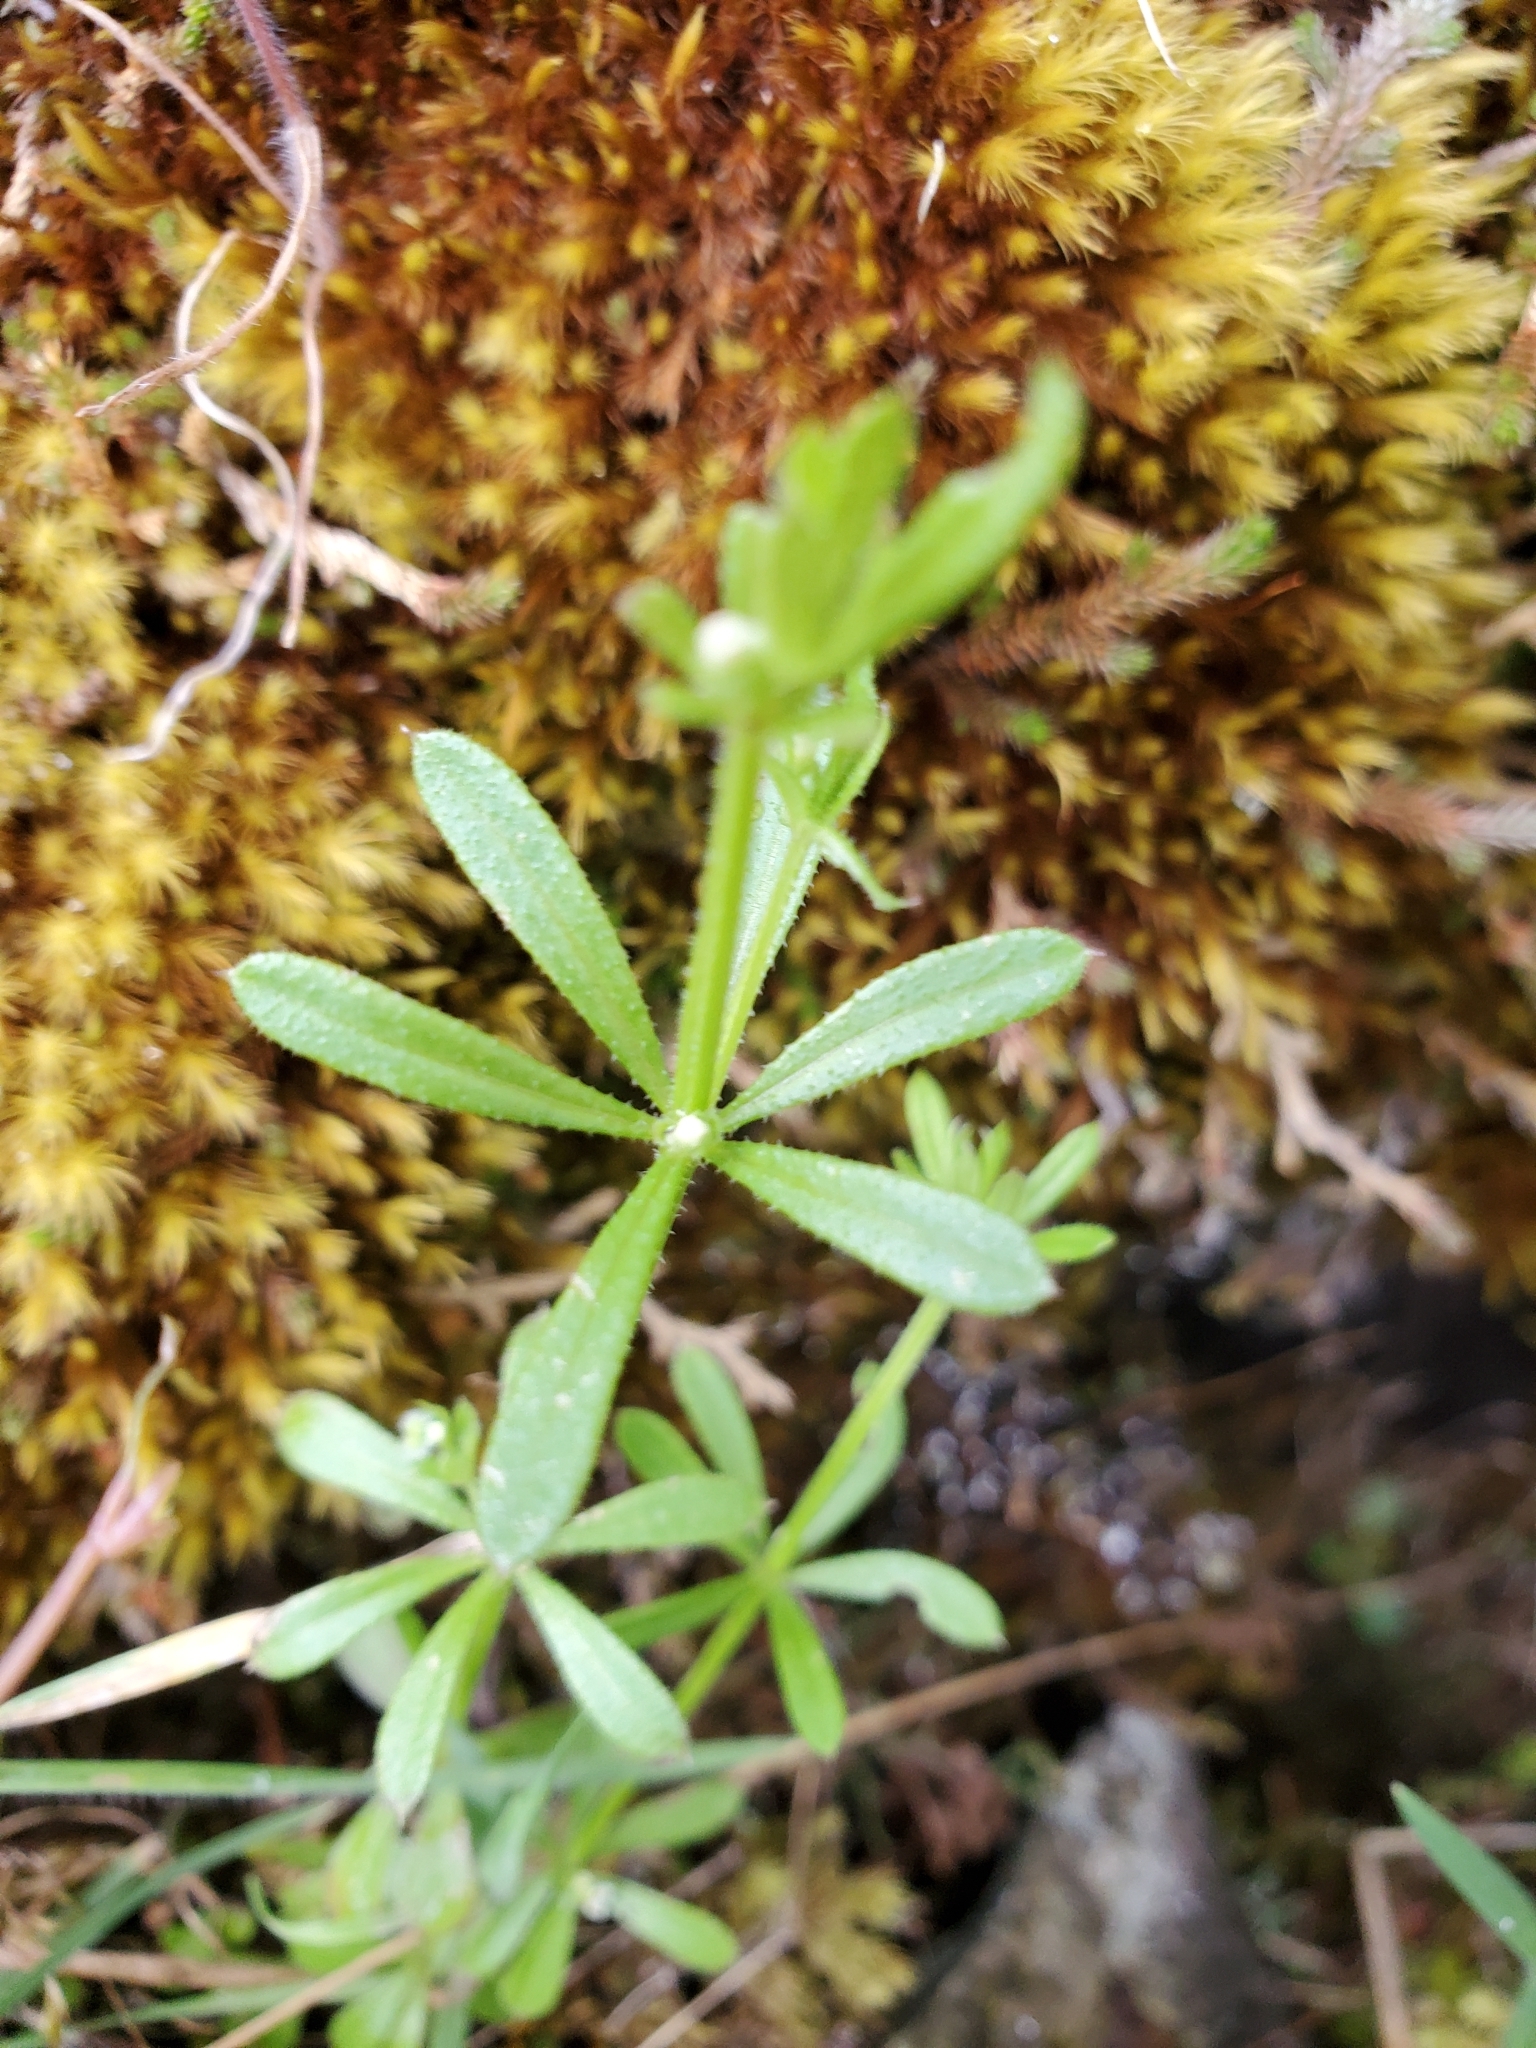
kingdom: Plantae
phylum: Tracheophyta
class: Magnoliopsida
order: Gentianales
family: Rubiaceae
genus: Galium
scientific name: Galium aparine
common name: Cleavers
